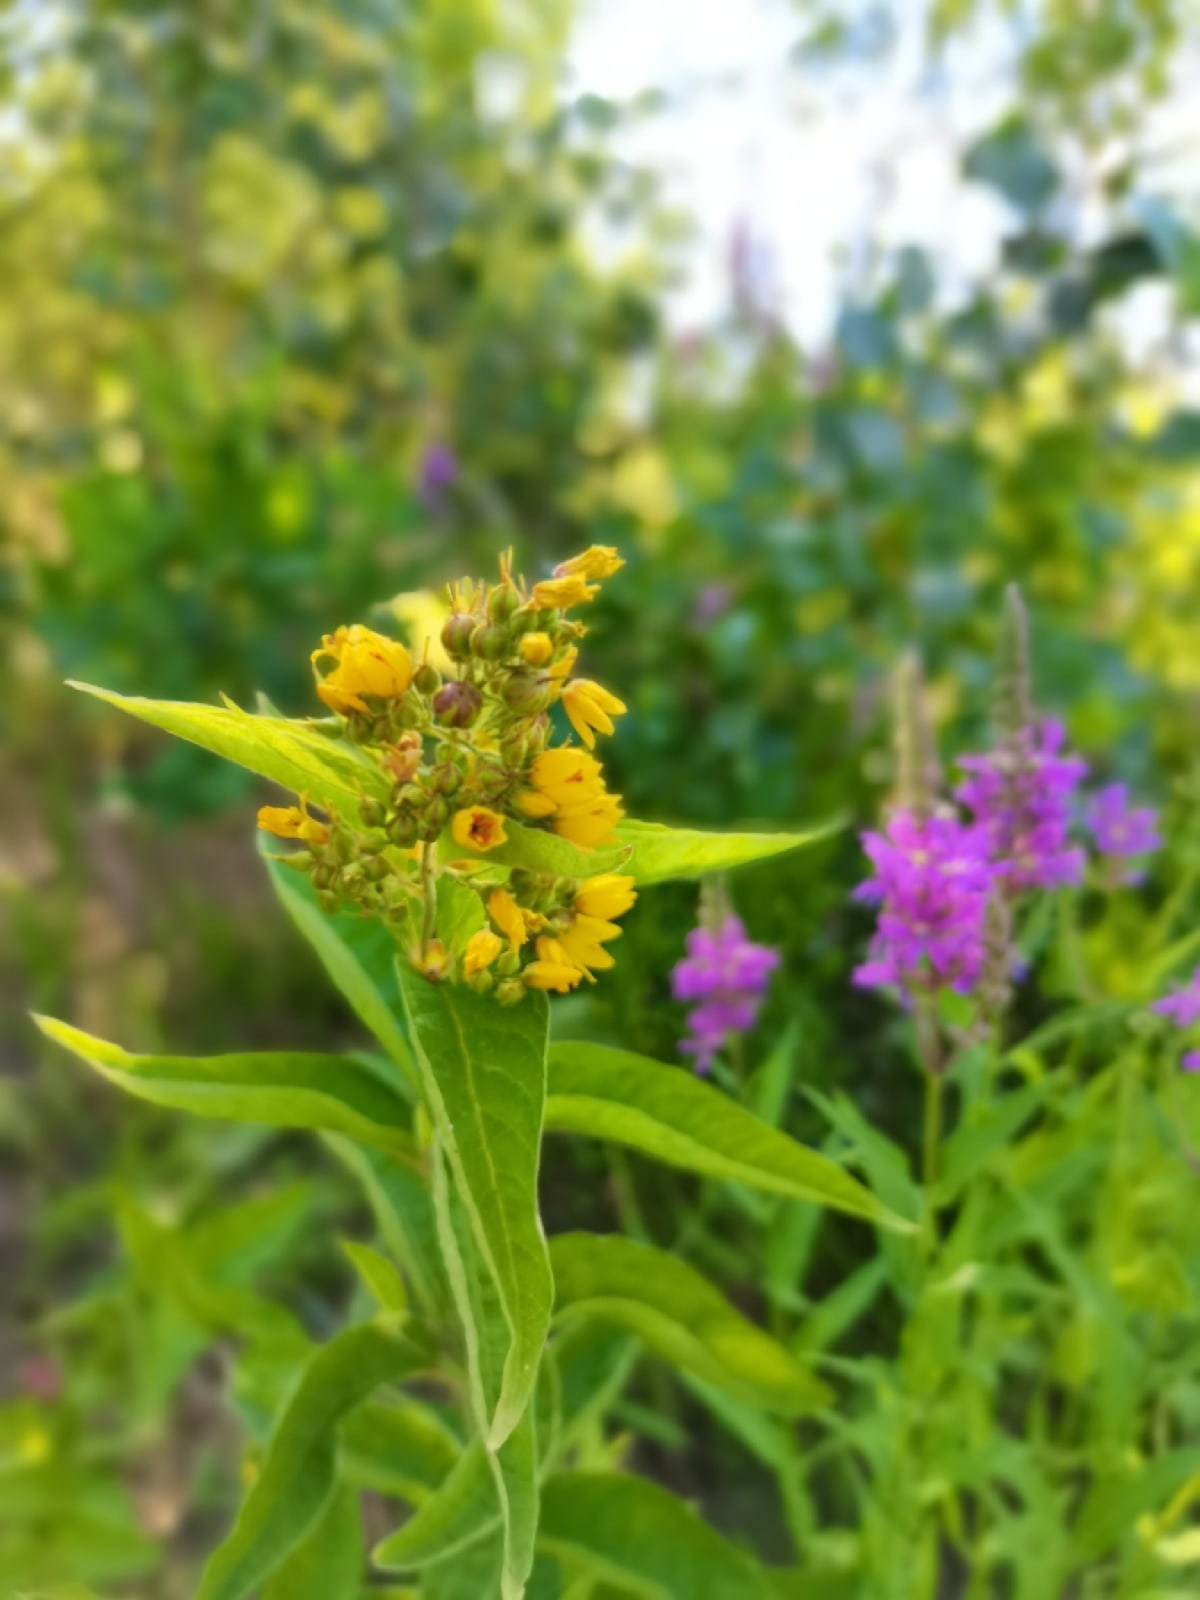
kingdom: Plantae
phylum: Tracheophyta
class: Magnoliopsida
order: Ericales
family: Primulaceae
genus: Lysimachia
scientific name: Lysimachia vulgaris
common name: Yellow loosestrife
